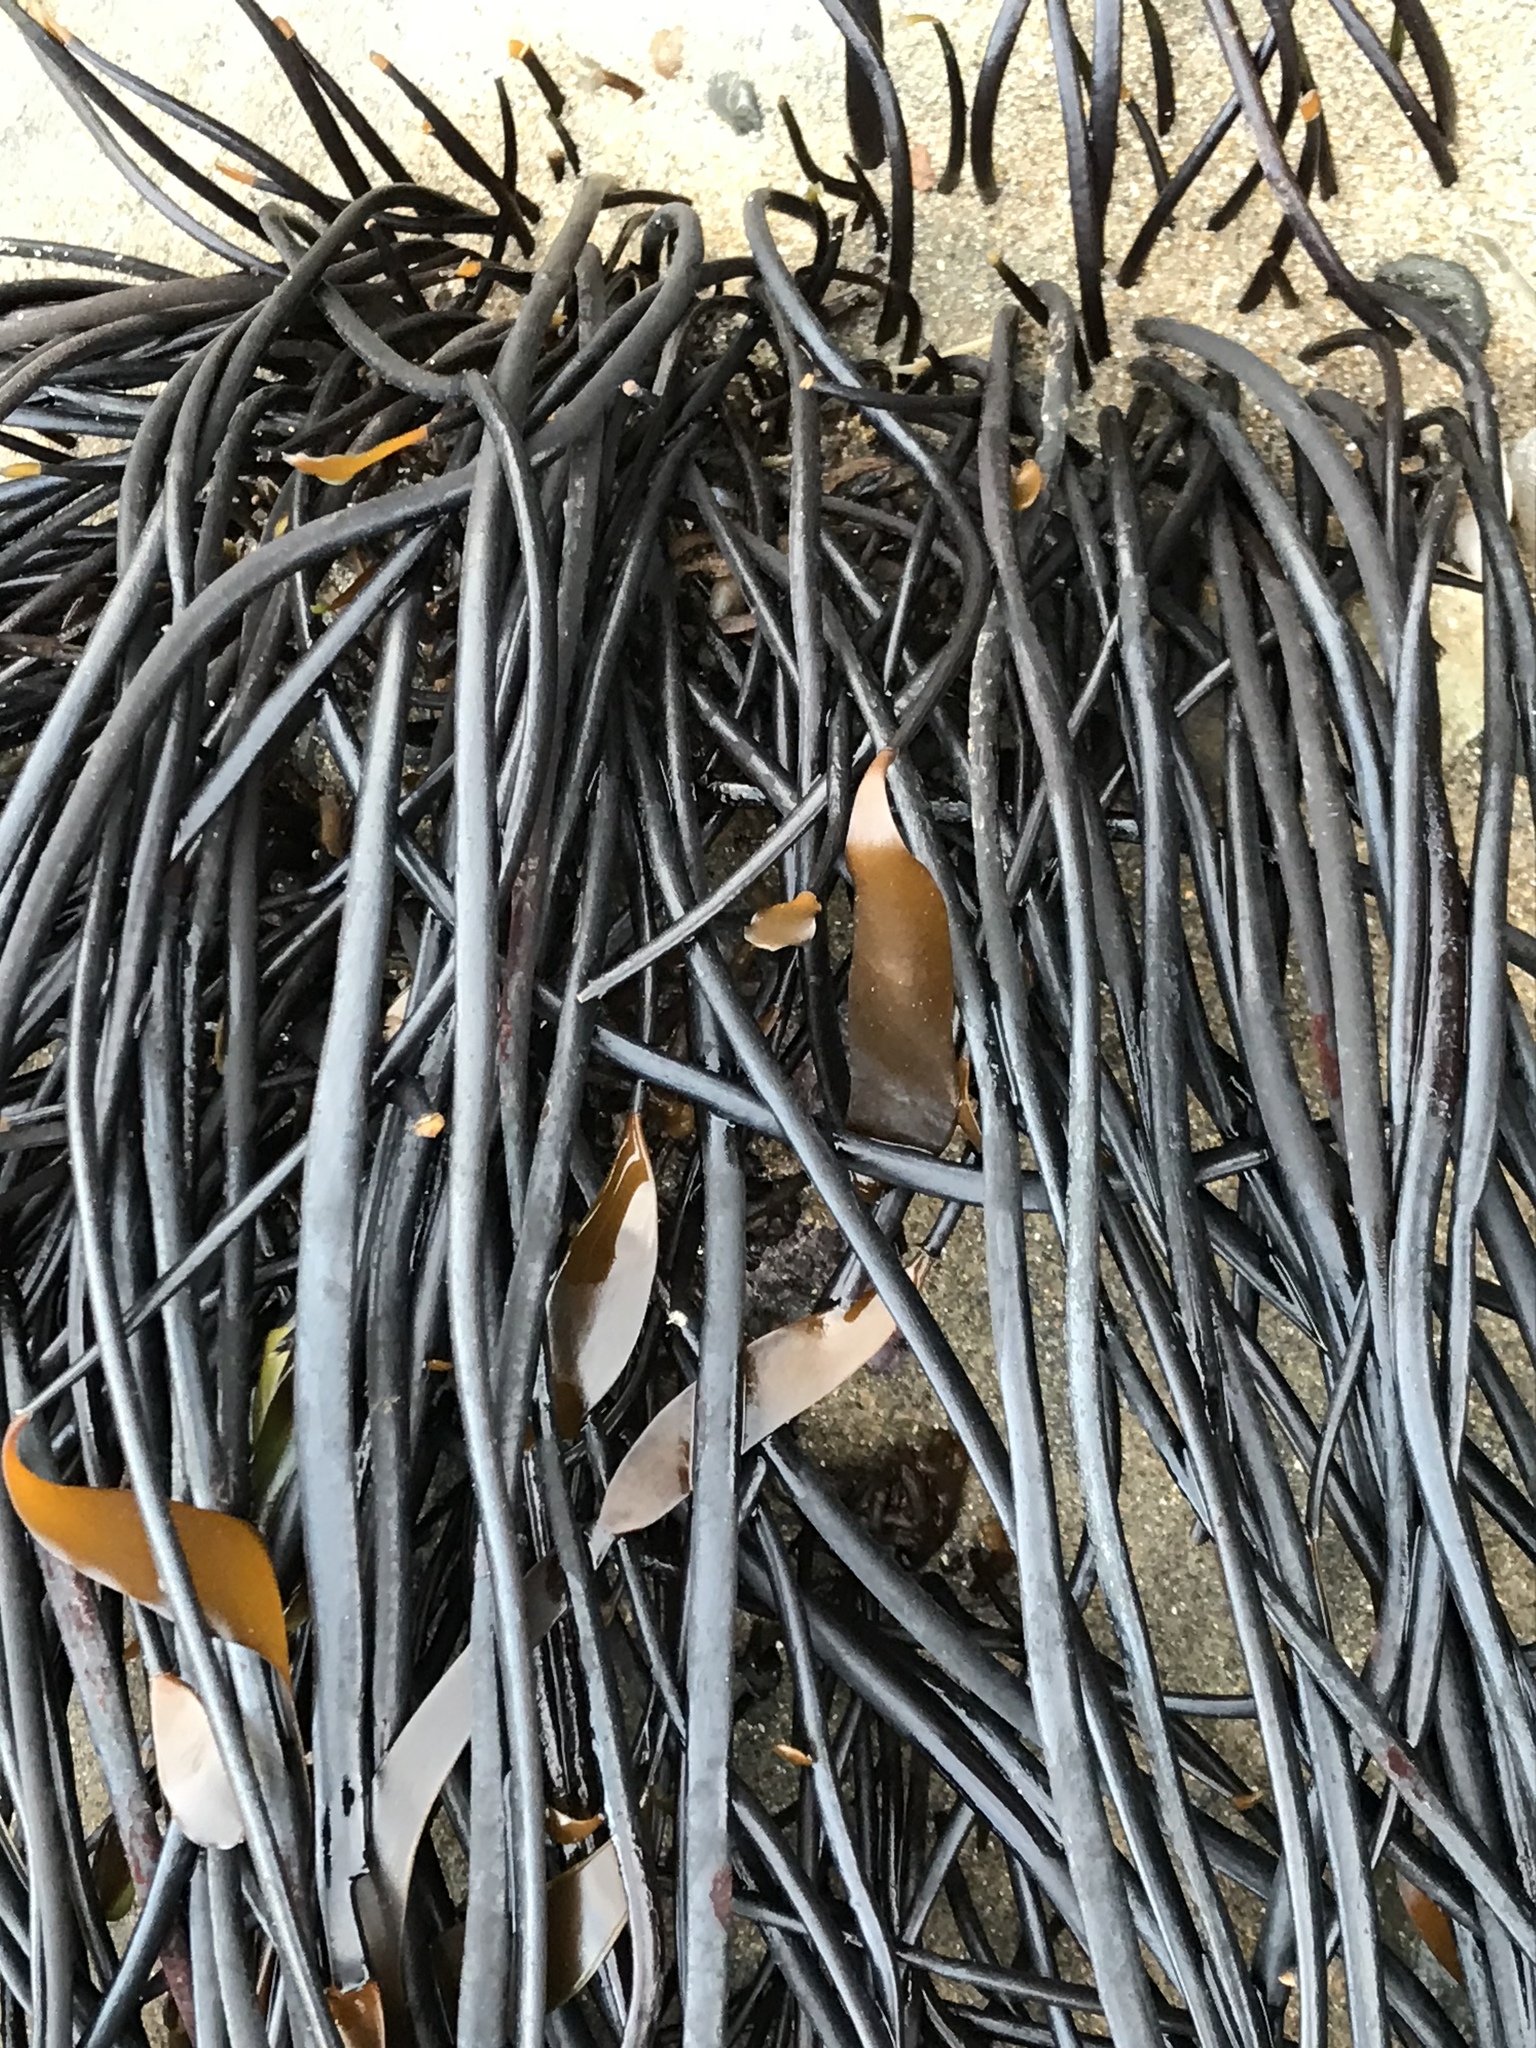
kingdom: Chromista
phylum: Ochrophyta
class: Phaeophyceae
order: Laminariales
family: Laminariaceae
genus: Laminaria
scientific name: Laminaria sinclairii
